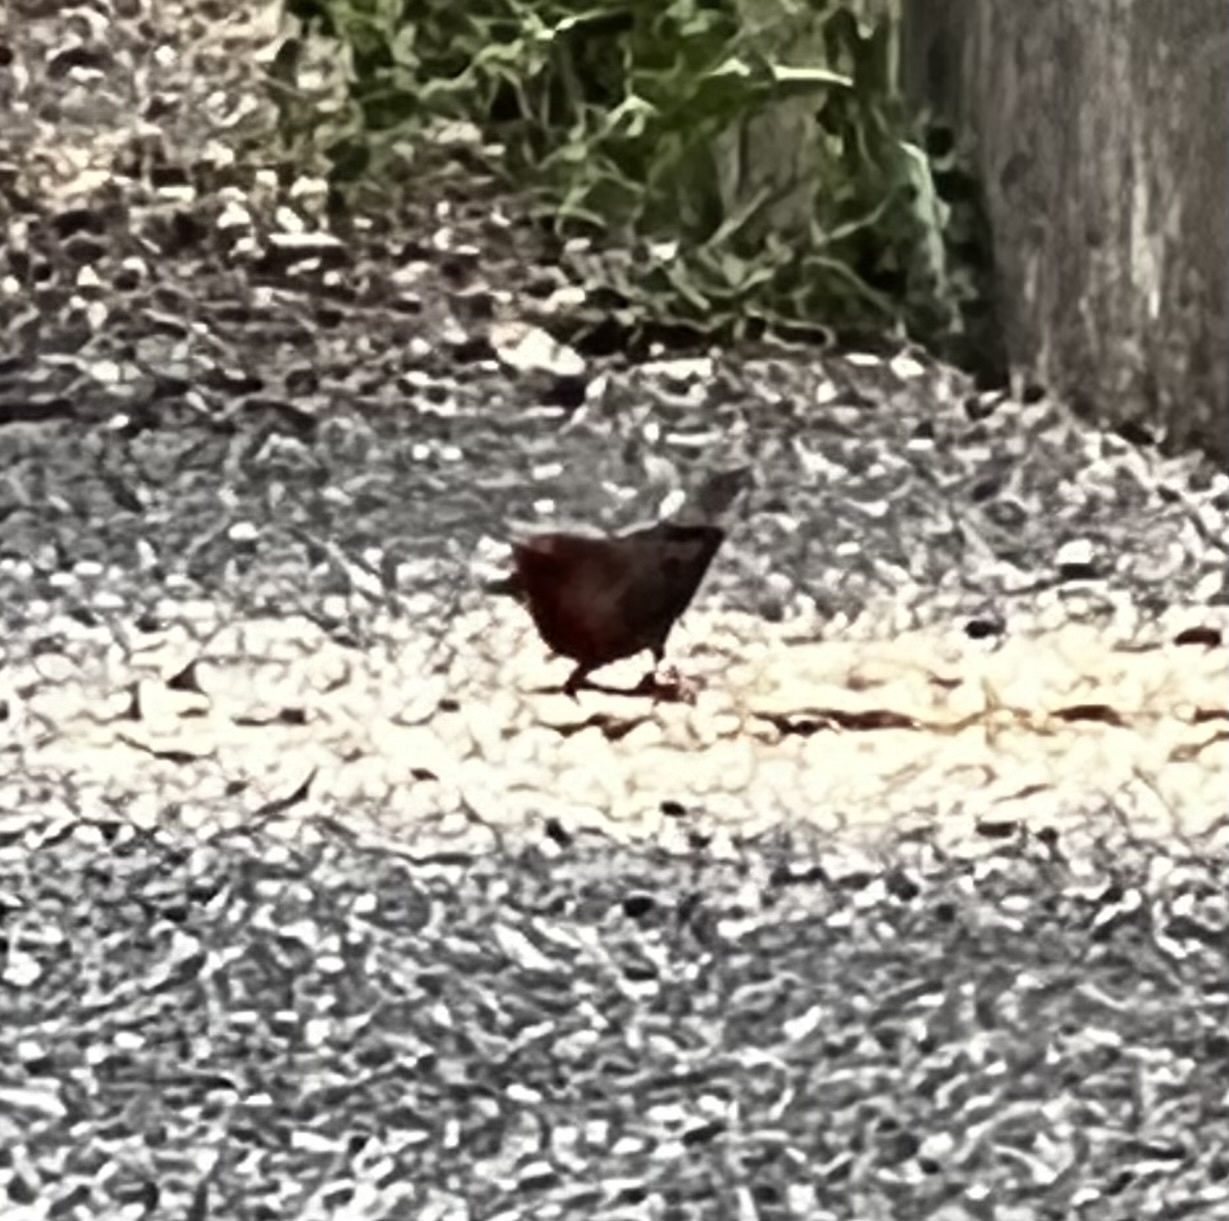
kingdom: Animalia
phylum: Chordata
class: Aves
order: Passeriformes
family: Fringillidae
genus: Haemorhous
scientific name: Haemorhous mexicanus
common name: House finch
